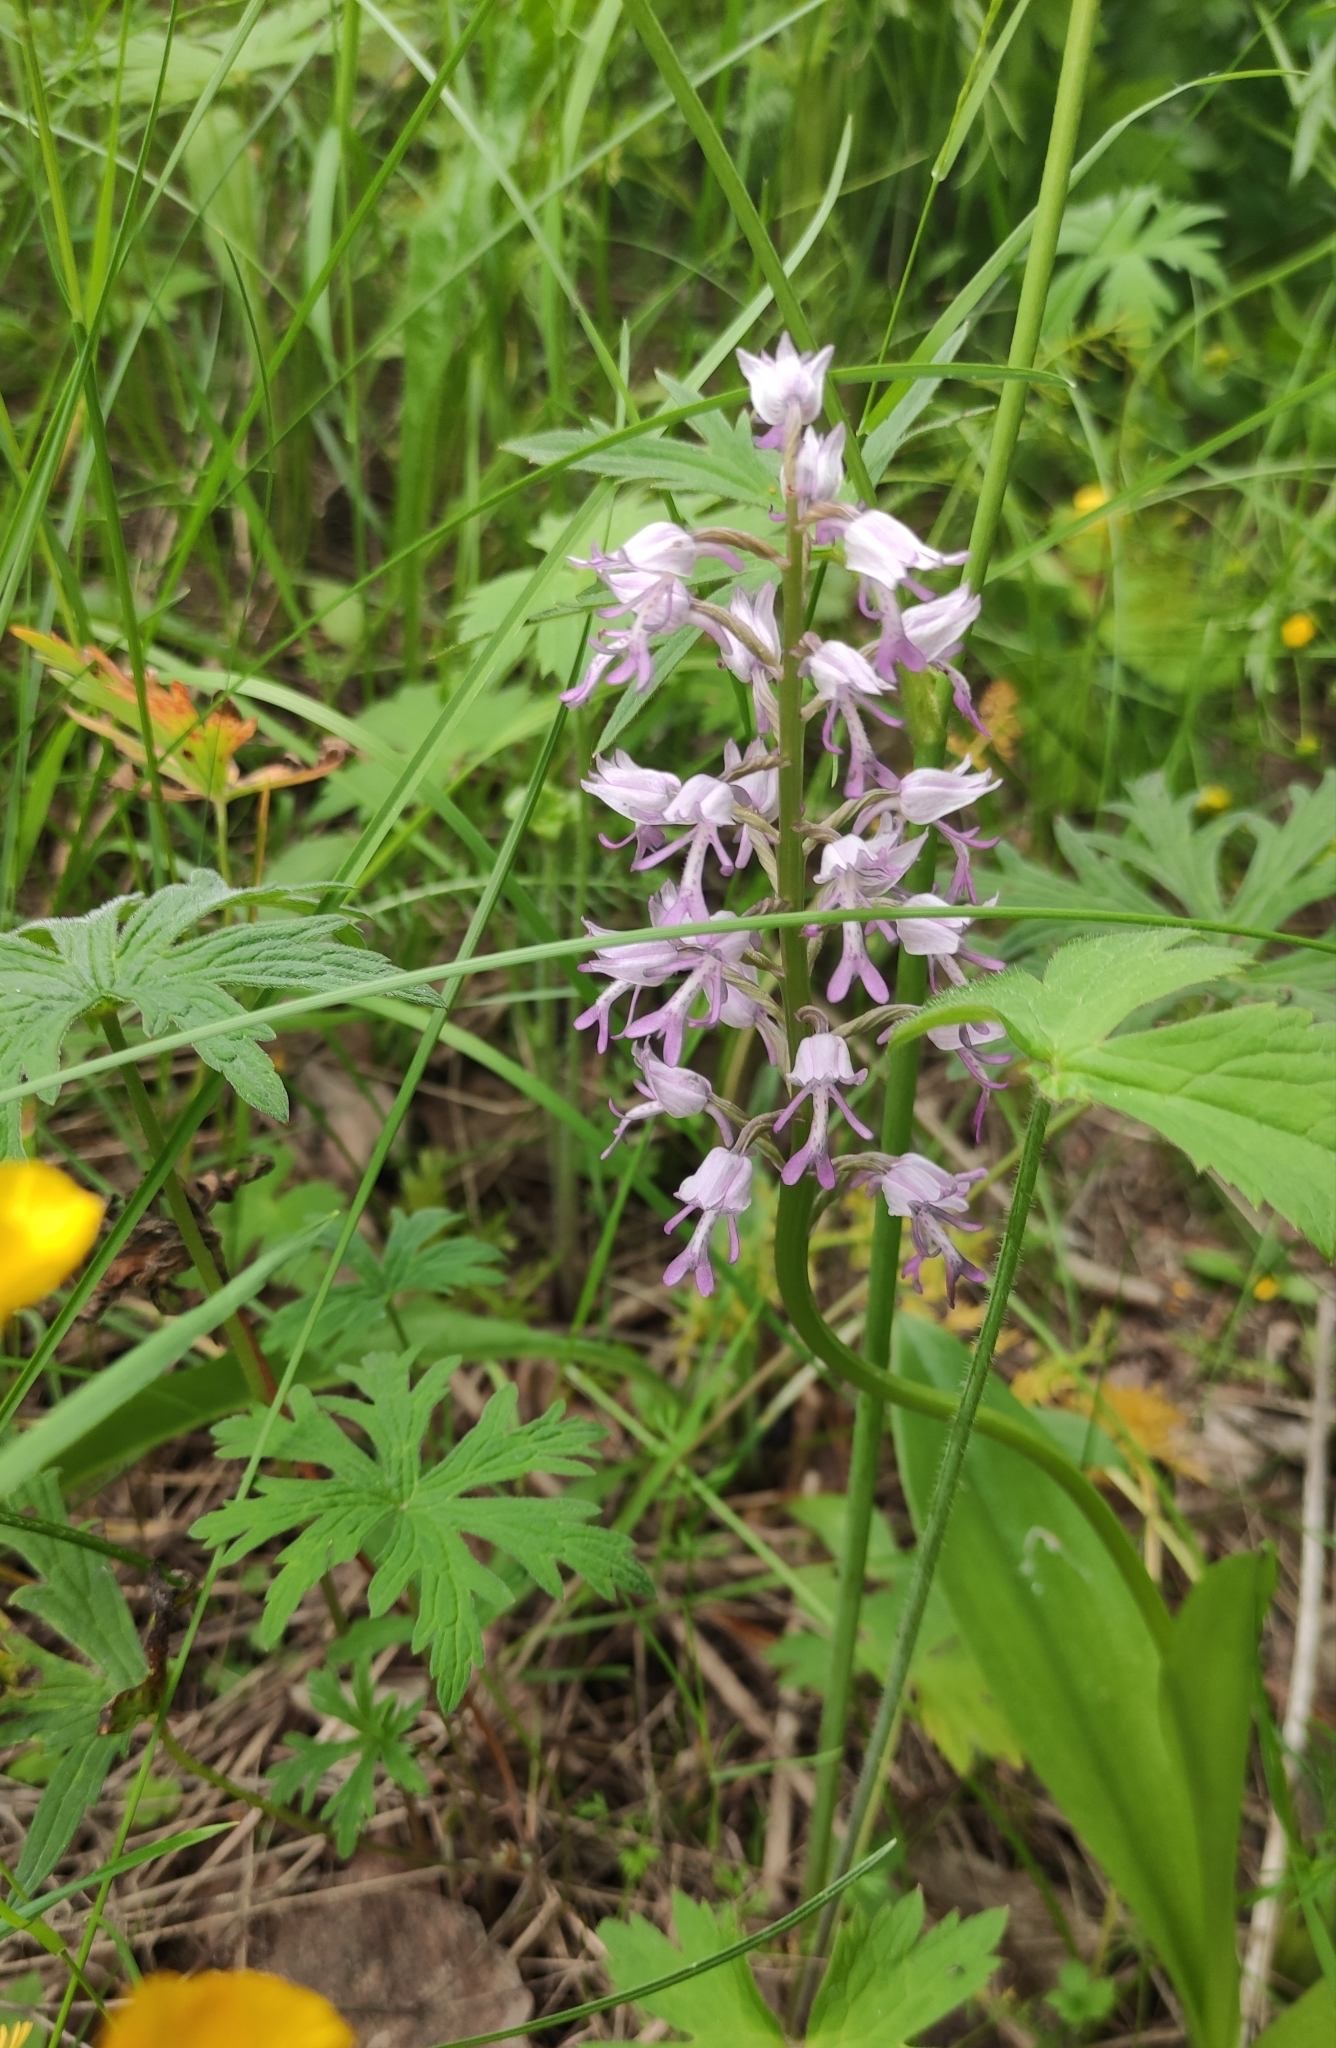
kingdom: Plantae
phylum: Tracheophyta
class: Liliopsida
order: Asparagales
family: Orchidaceae
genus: Orchis
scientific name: Orchis militaris
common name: Military orchid
